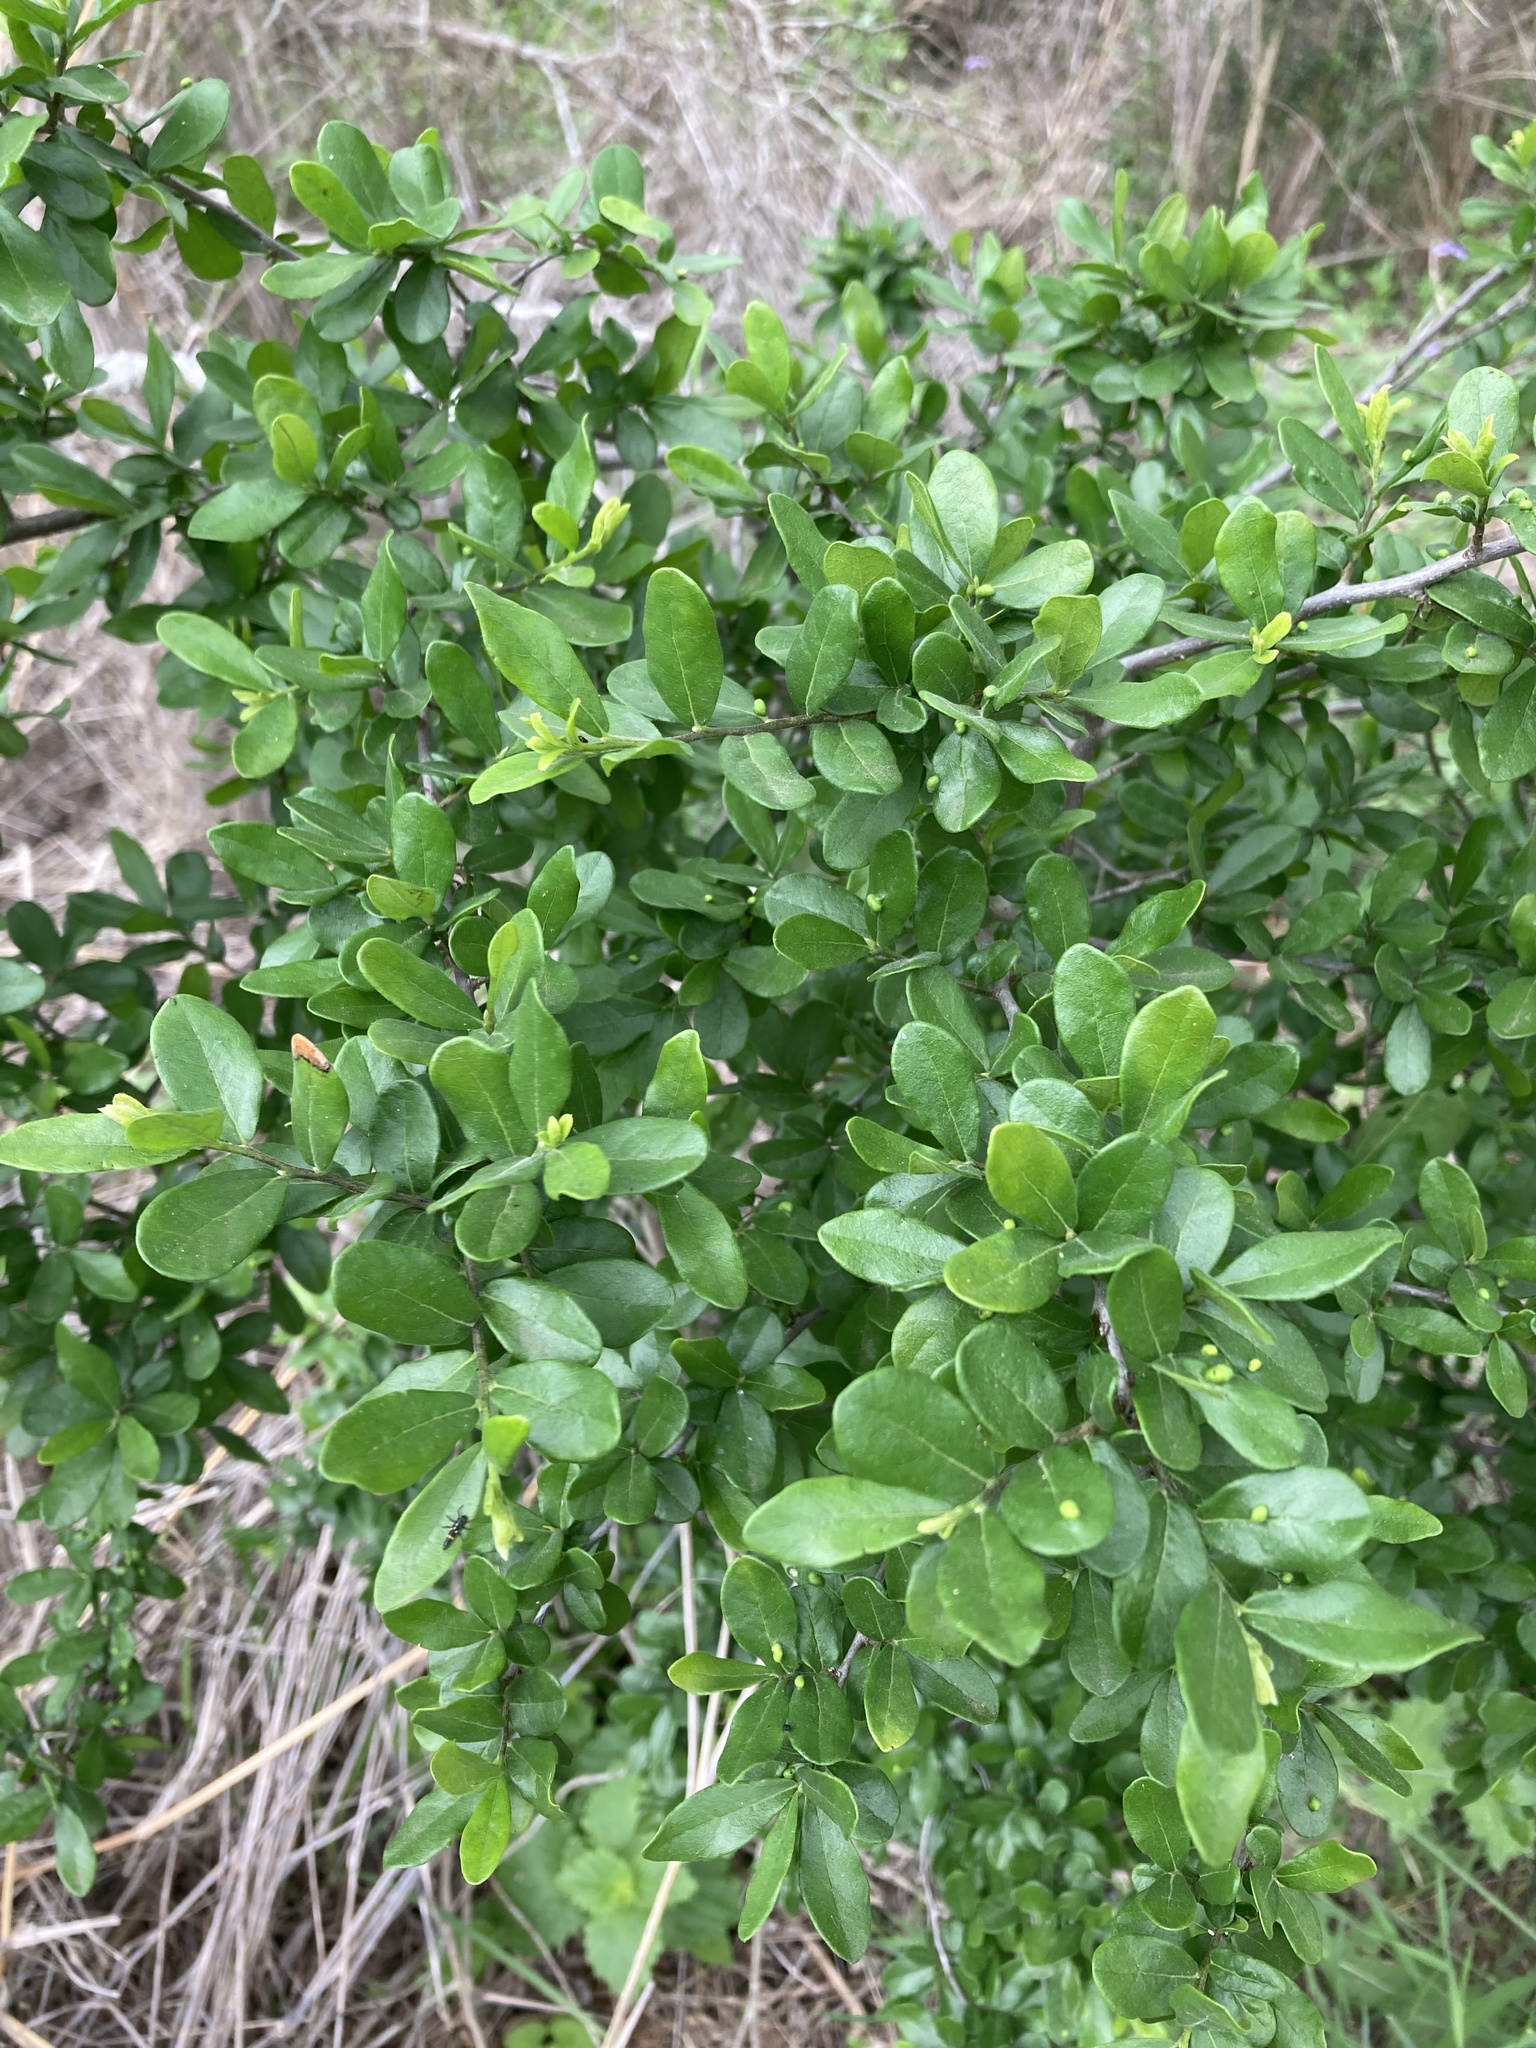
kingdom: Plantae
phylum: Tracheophyta
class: Magnoliopsida
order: Ericales
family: Ebenaceae
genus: Diospyros
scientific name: Diospyros texana
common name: Texas persimmon
